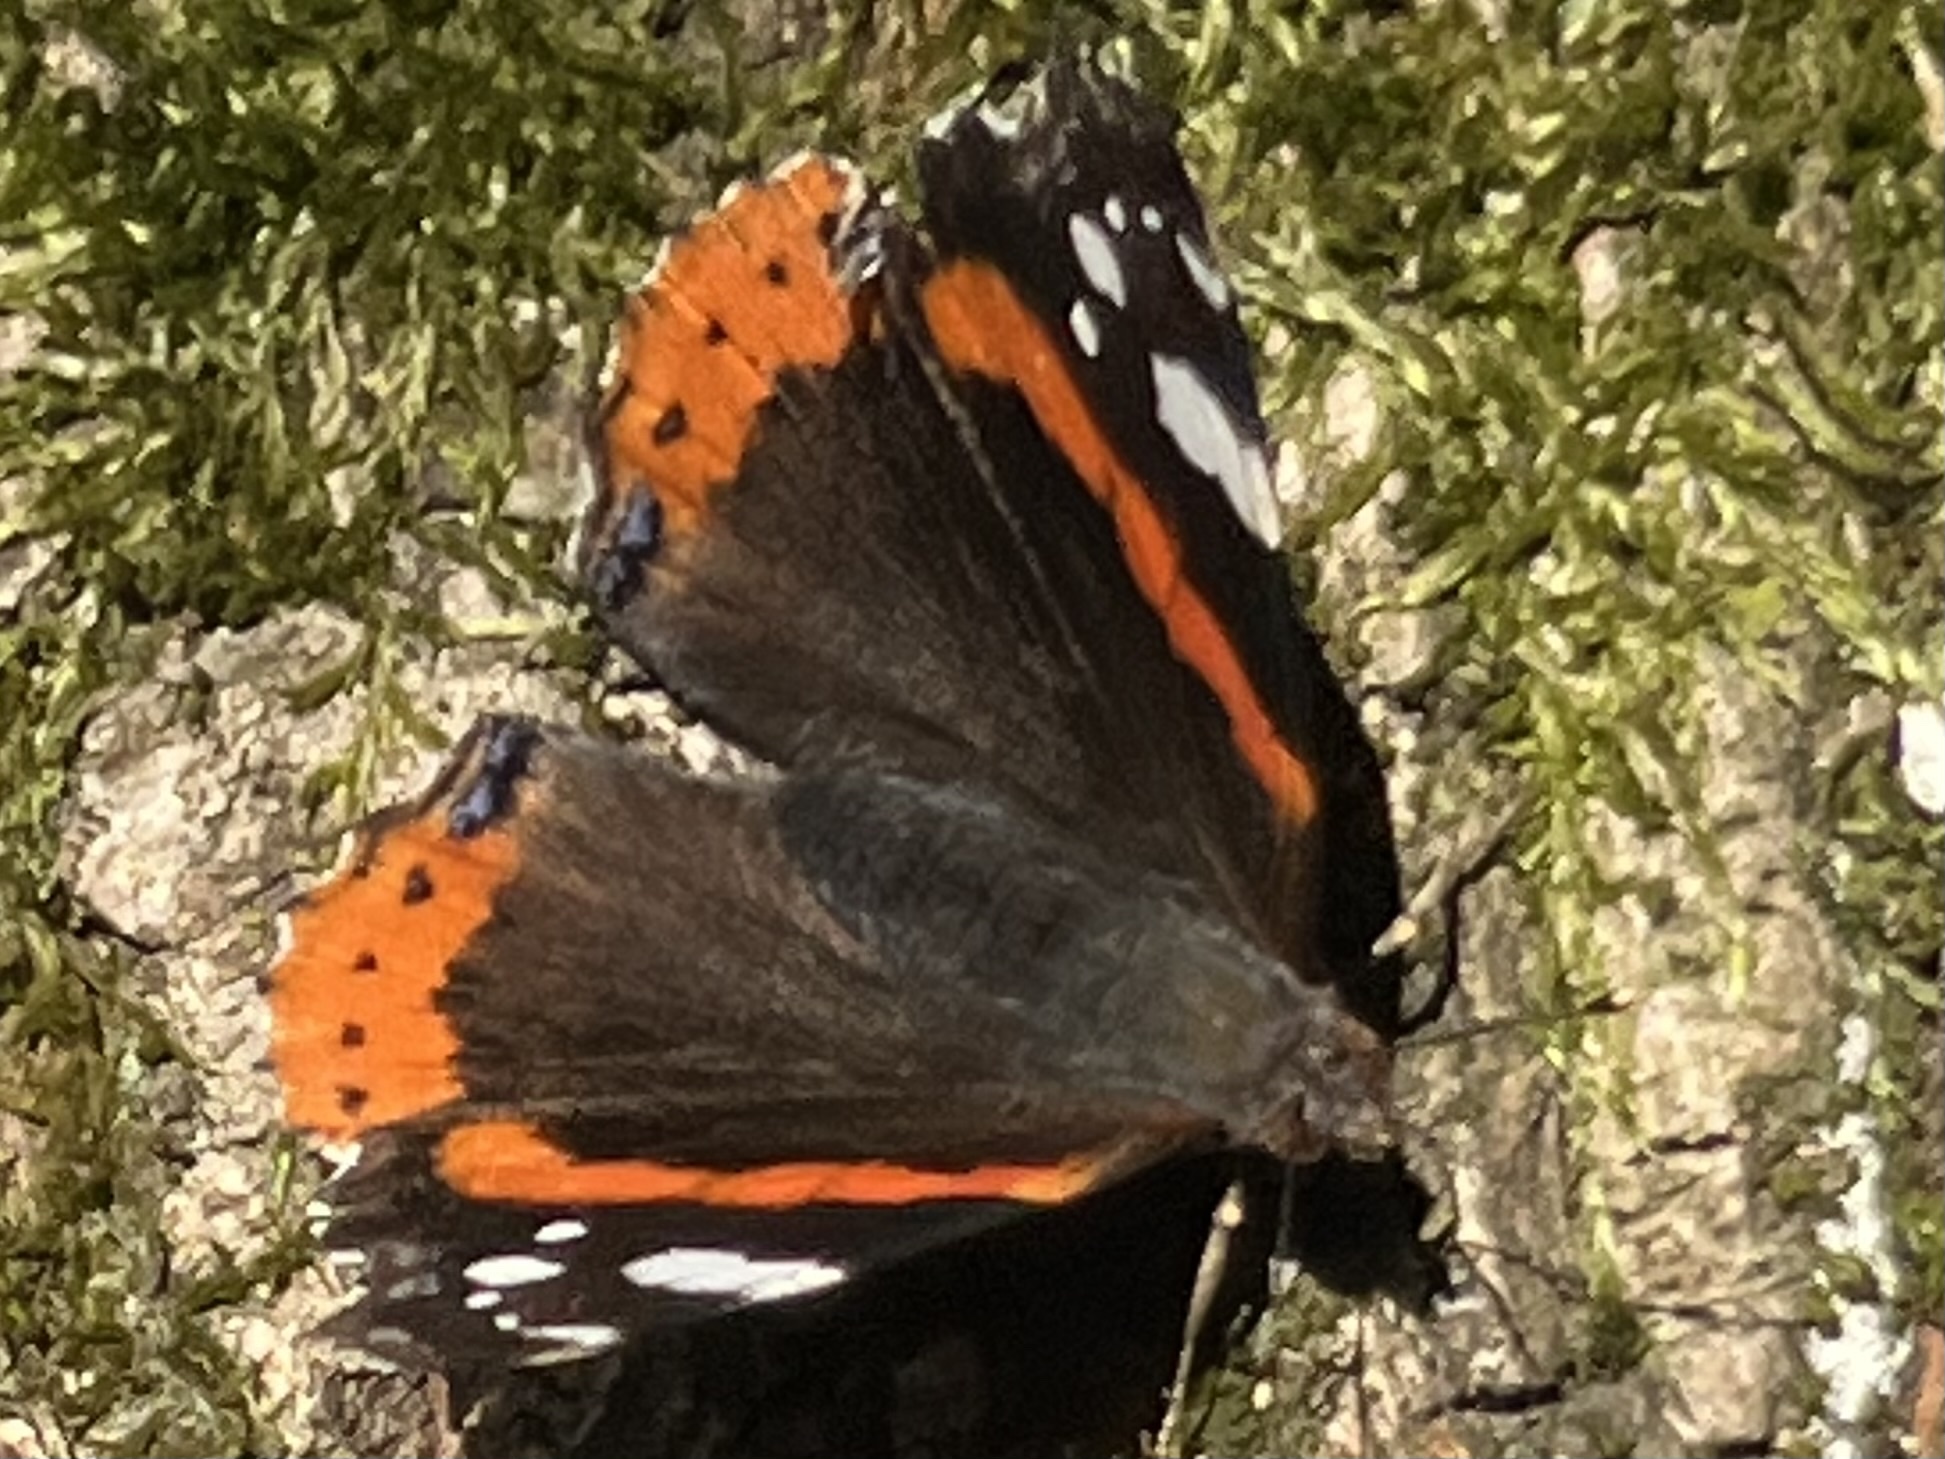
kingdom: Animalia
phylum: Arthropoda
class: Insecta
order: Lepidoptera
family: Nymphalidae
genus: Vanessa
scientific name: Vanessa atalanta
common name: Red admiral
